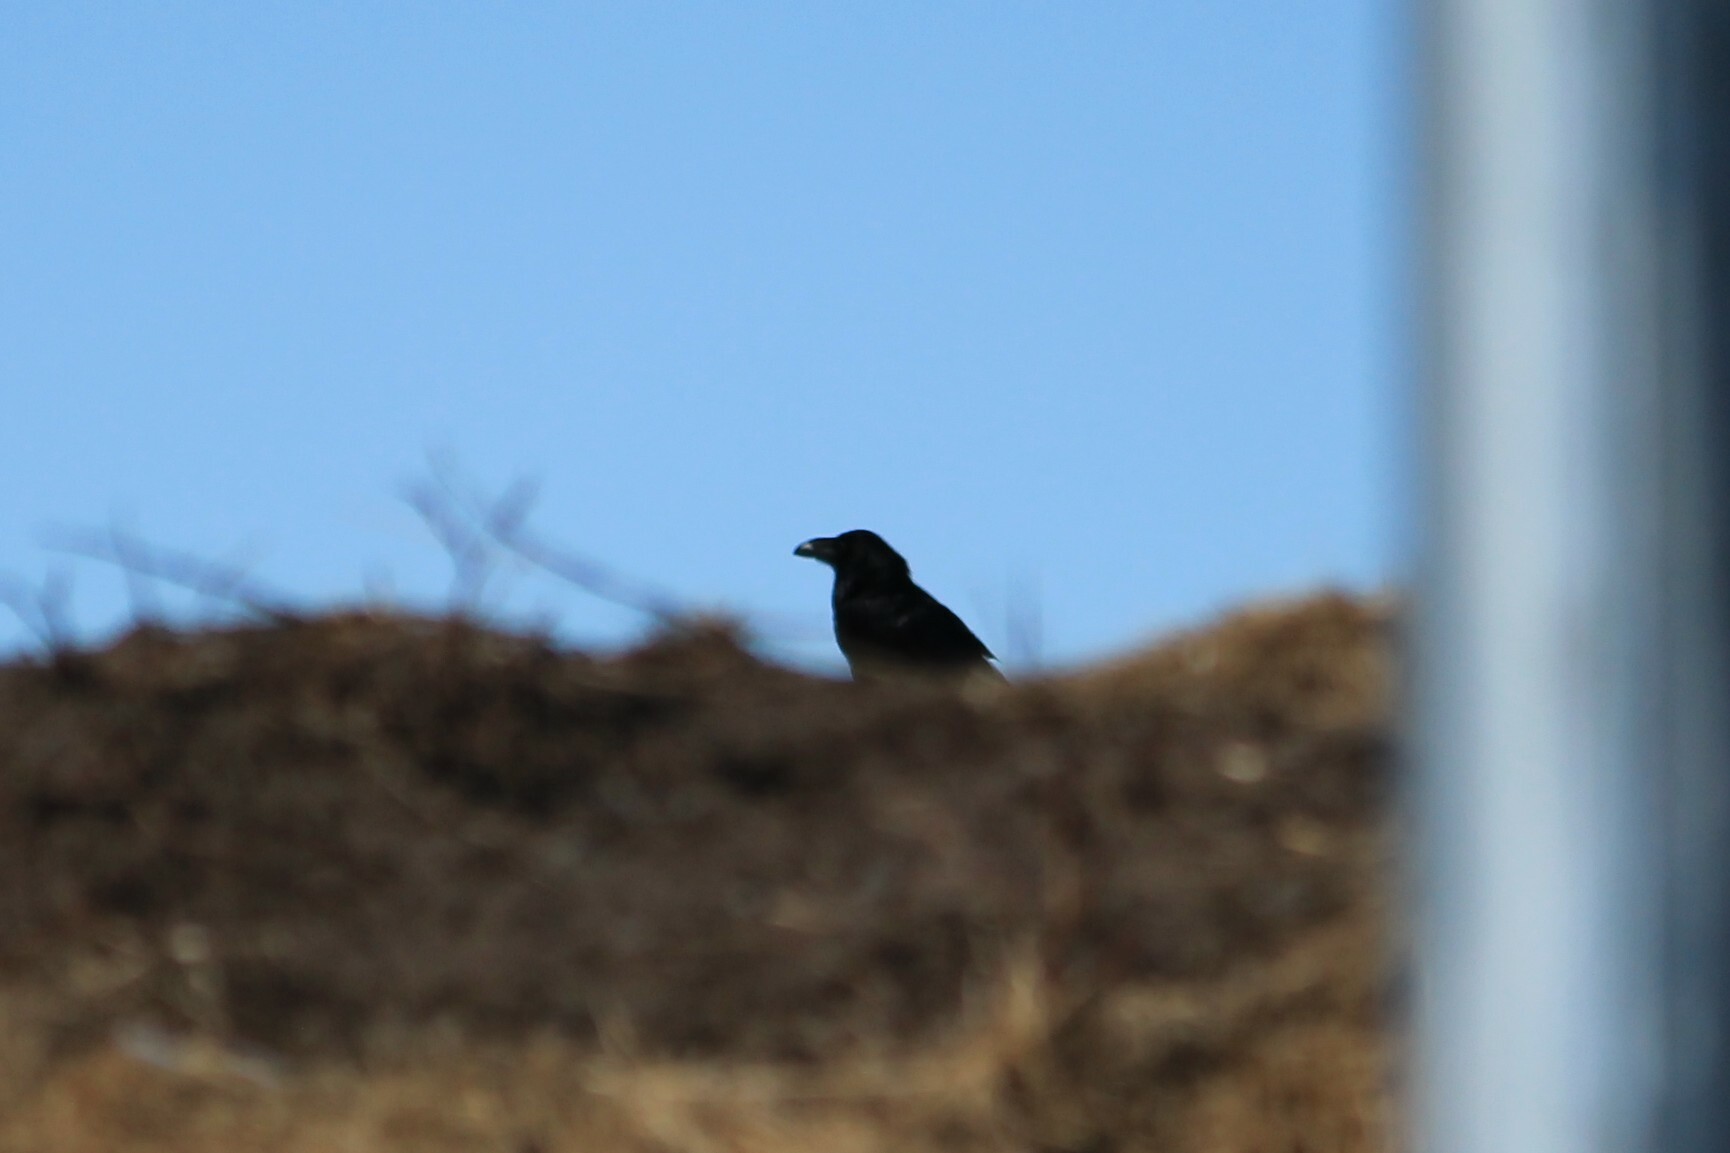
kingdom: Animalia
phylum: Chordata
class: Aves
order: Passeriformes
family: Corvidae
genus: Corvus
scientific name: Corvus corax
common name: Common raven
